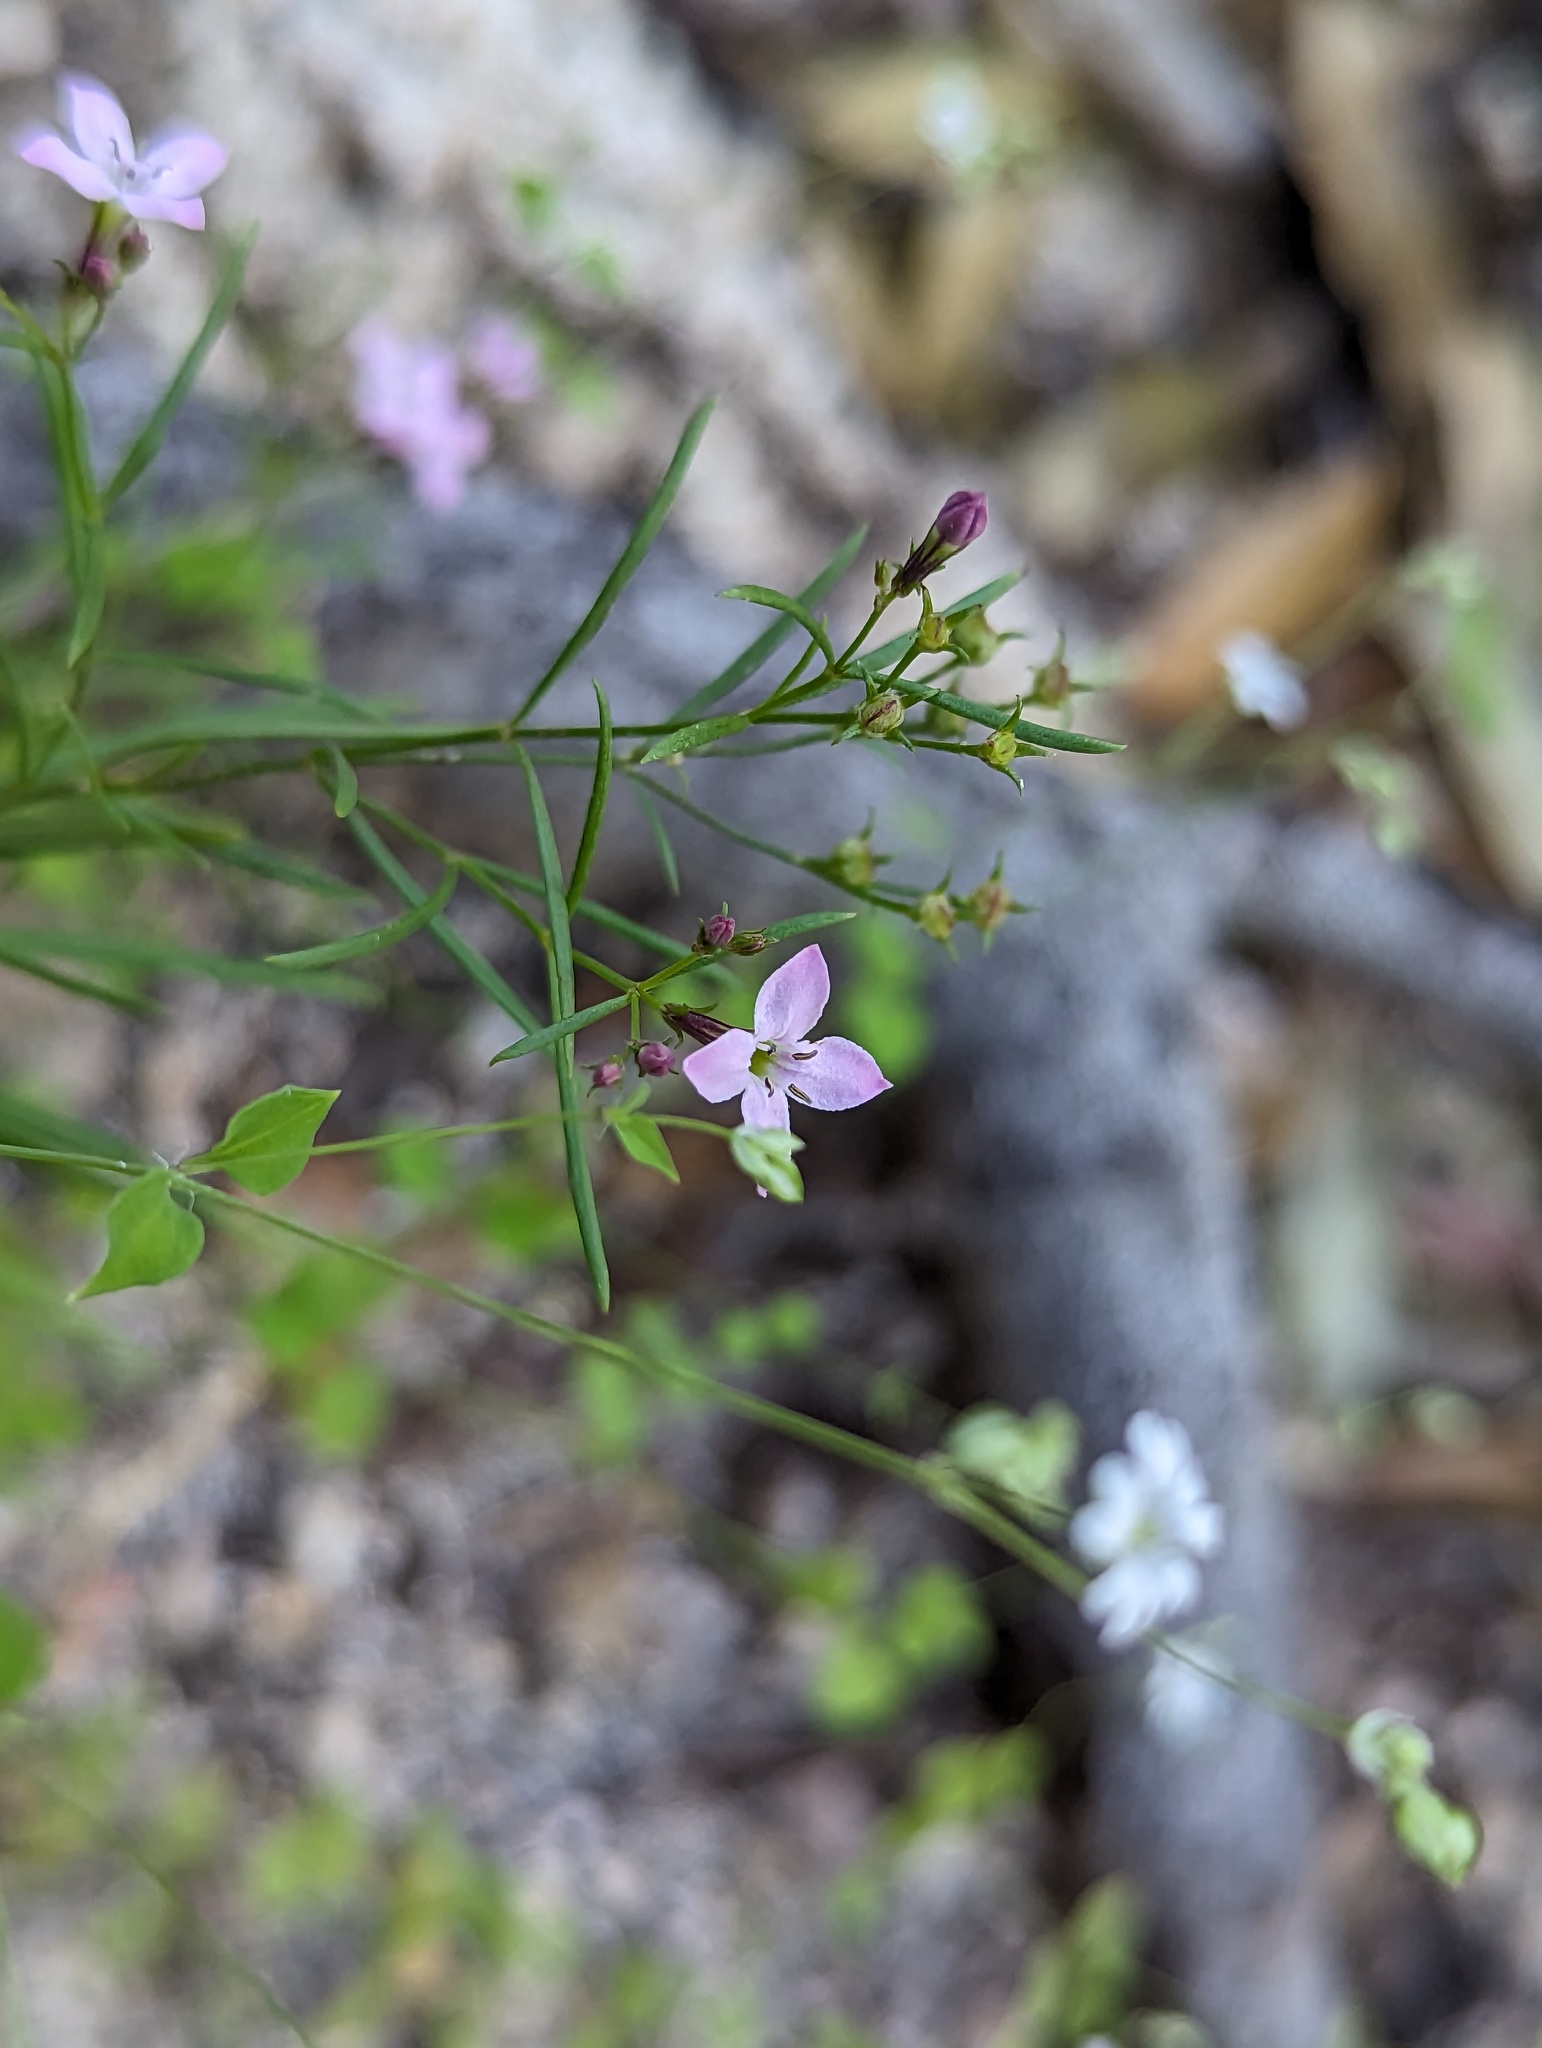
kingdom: Plantae
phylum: Tracheophyta
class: Magnoliopsida
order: Gentianales
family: Rubiaceae
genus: Stenotis
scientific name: Stenotis australis
